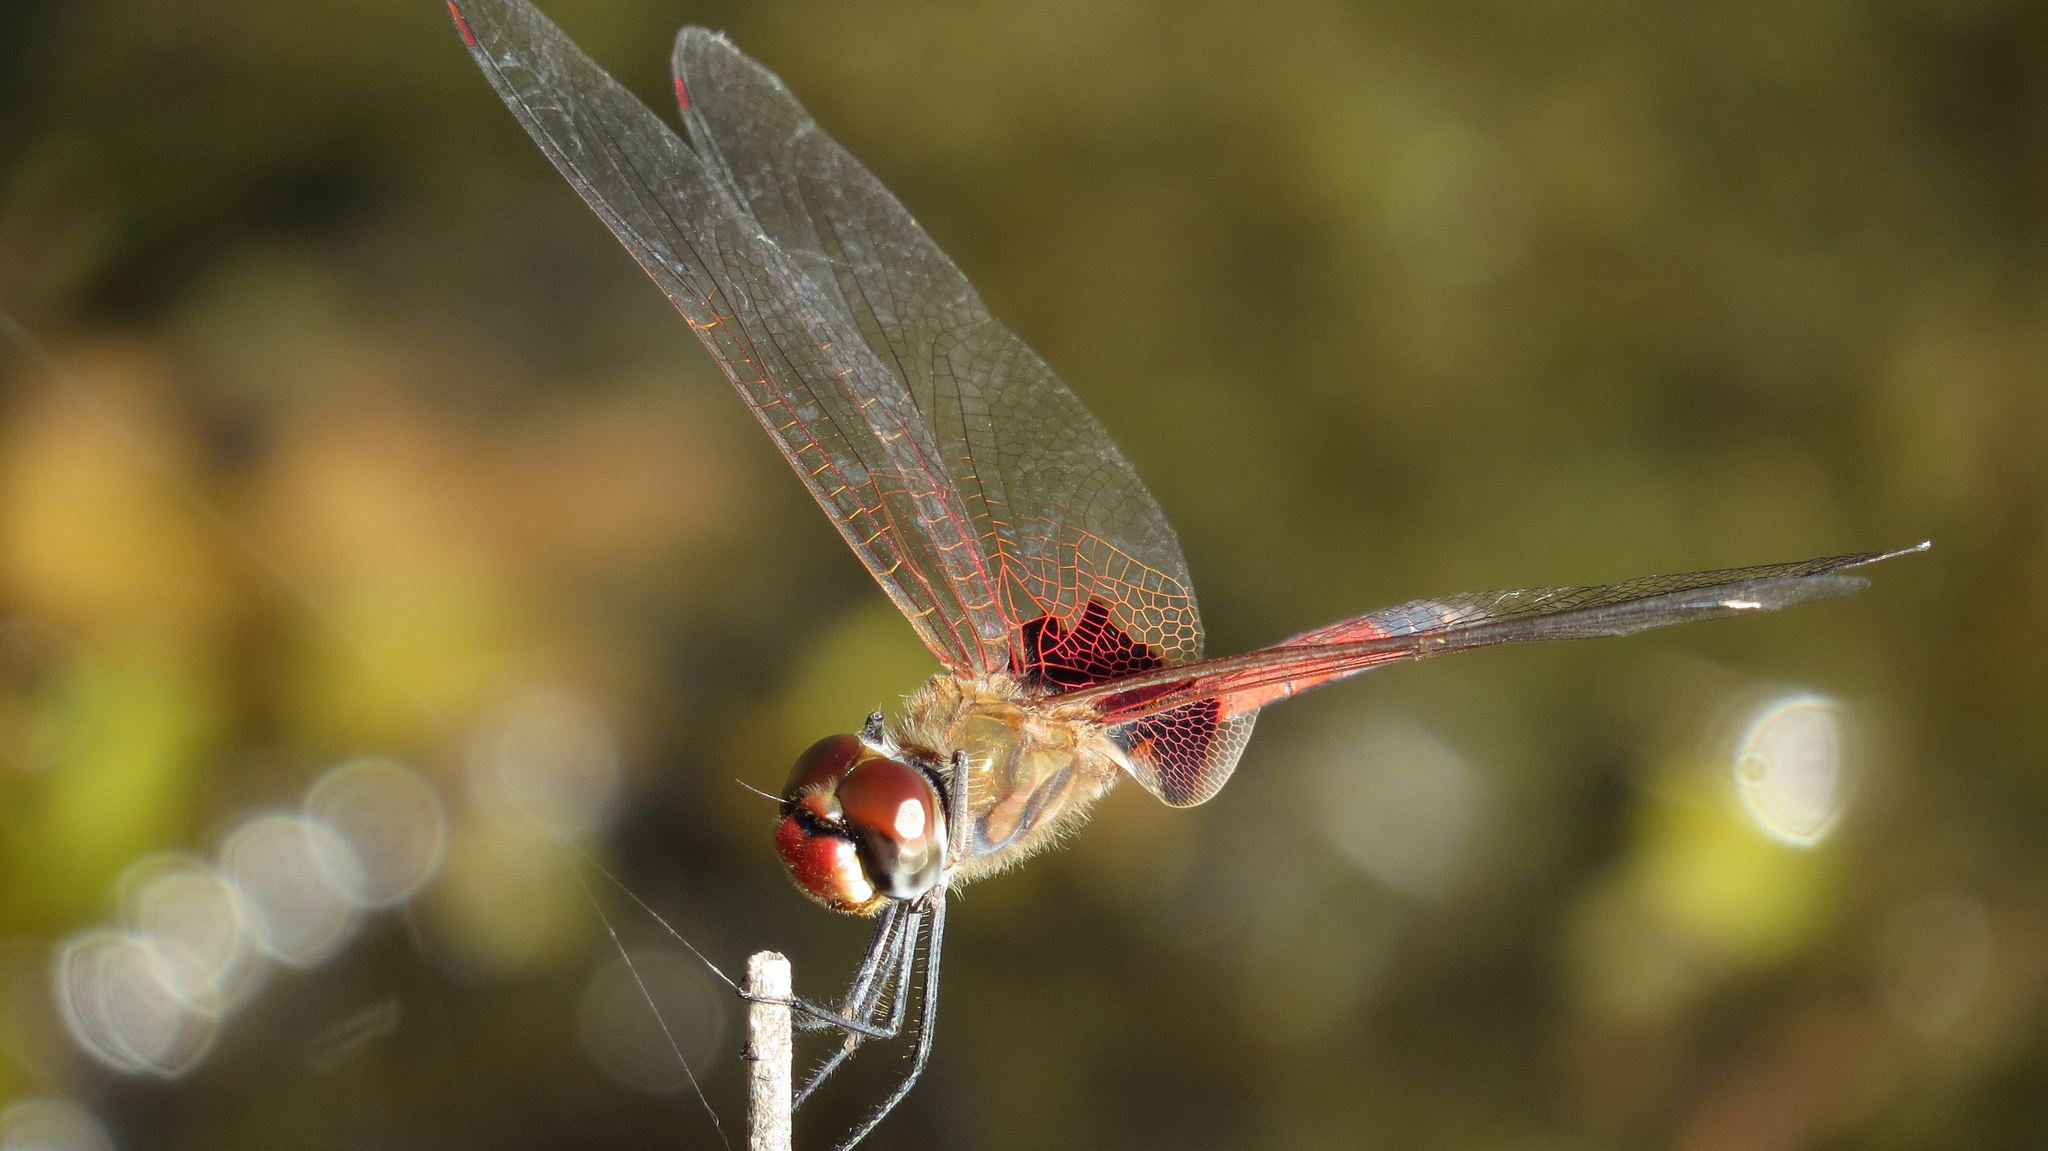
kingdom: Animalia
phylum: Arthropoda
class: Insecta
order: Odonata
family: Libellulidae
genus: Tramea
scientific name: Tramea loewii
